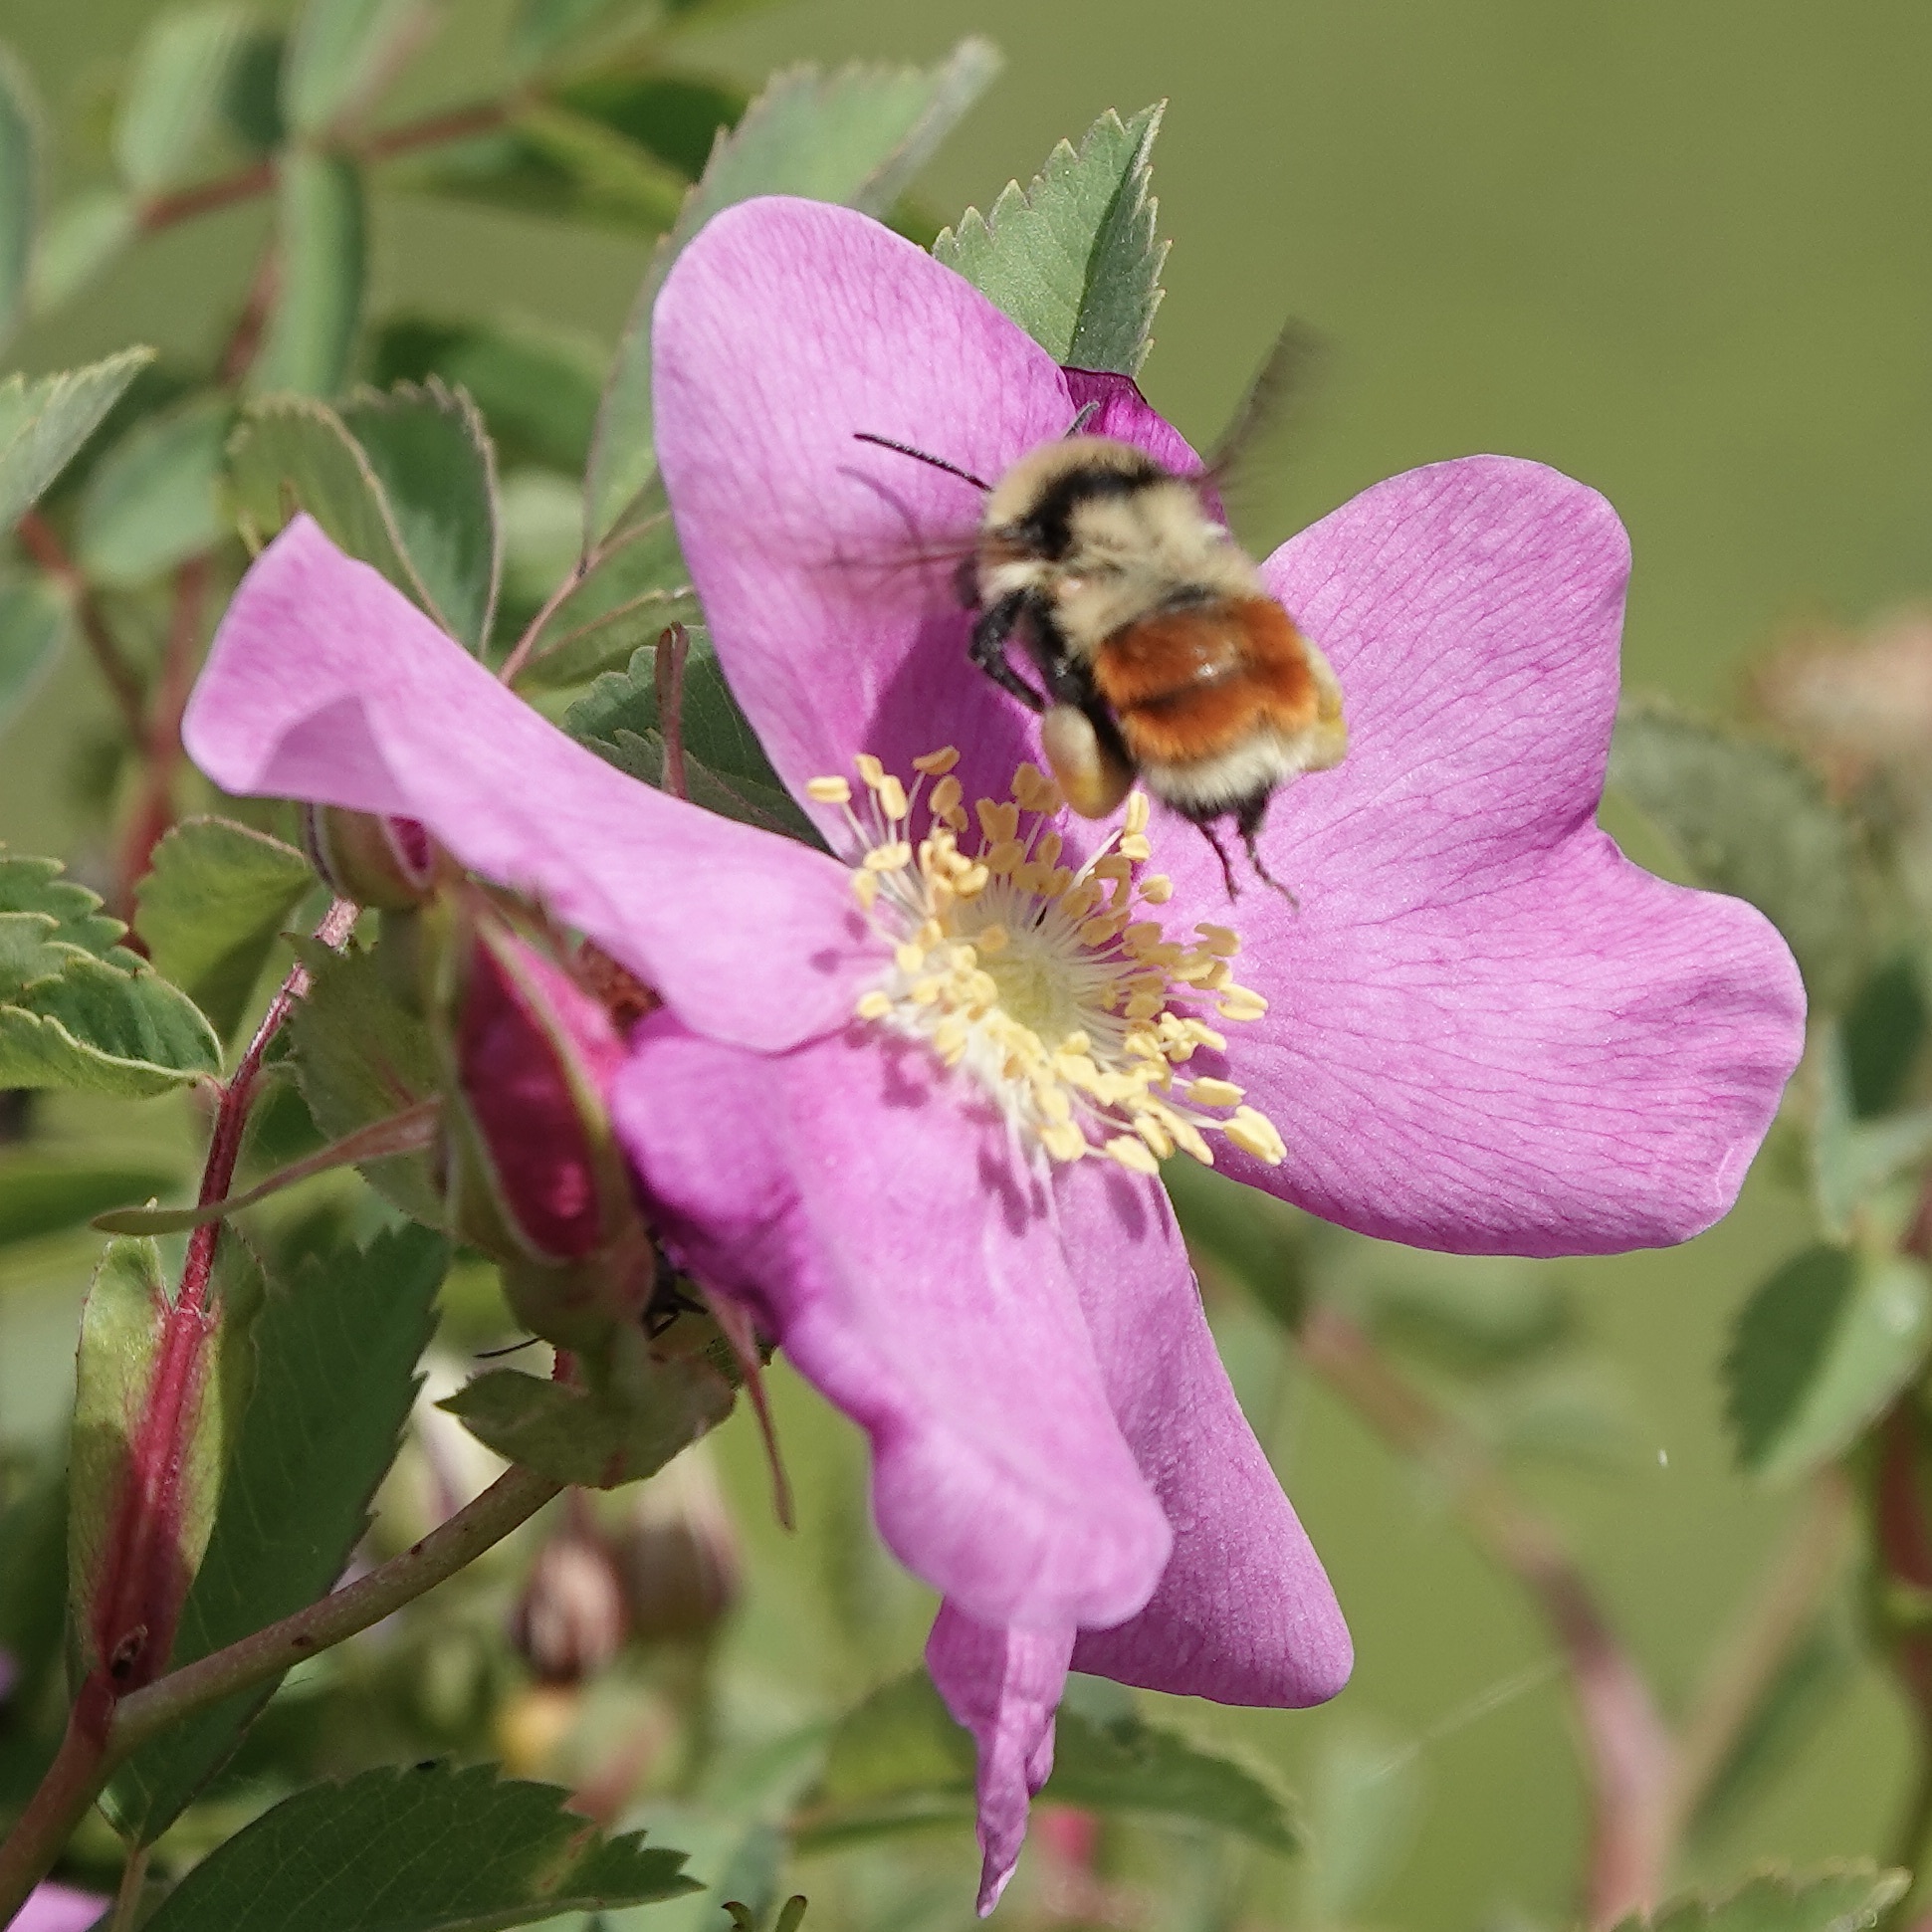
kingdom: Animalia
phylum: Arthropoda
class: Insecta
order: Hymenoptera
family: Apidae
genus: Bombus
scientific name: Bombus huntii
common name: Hunt bumble bee
